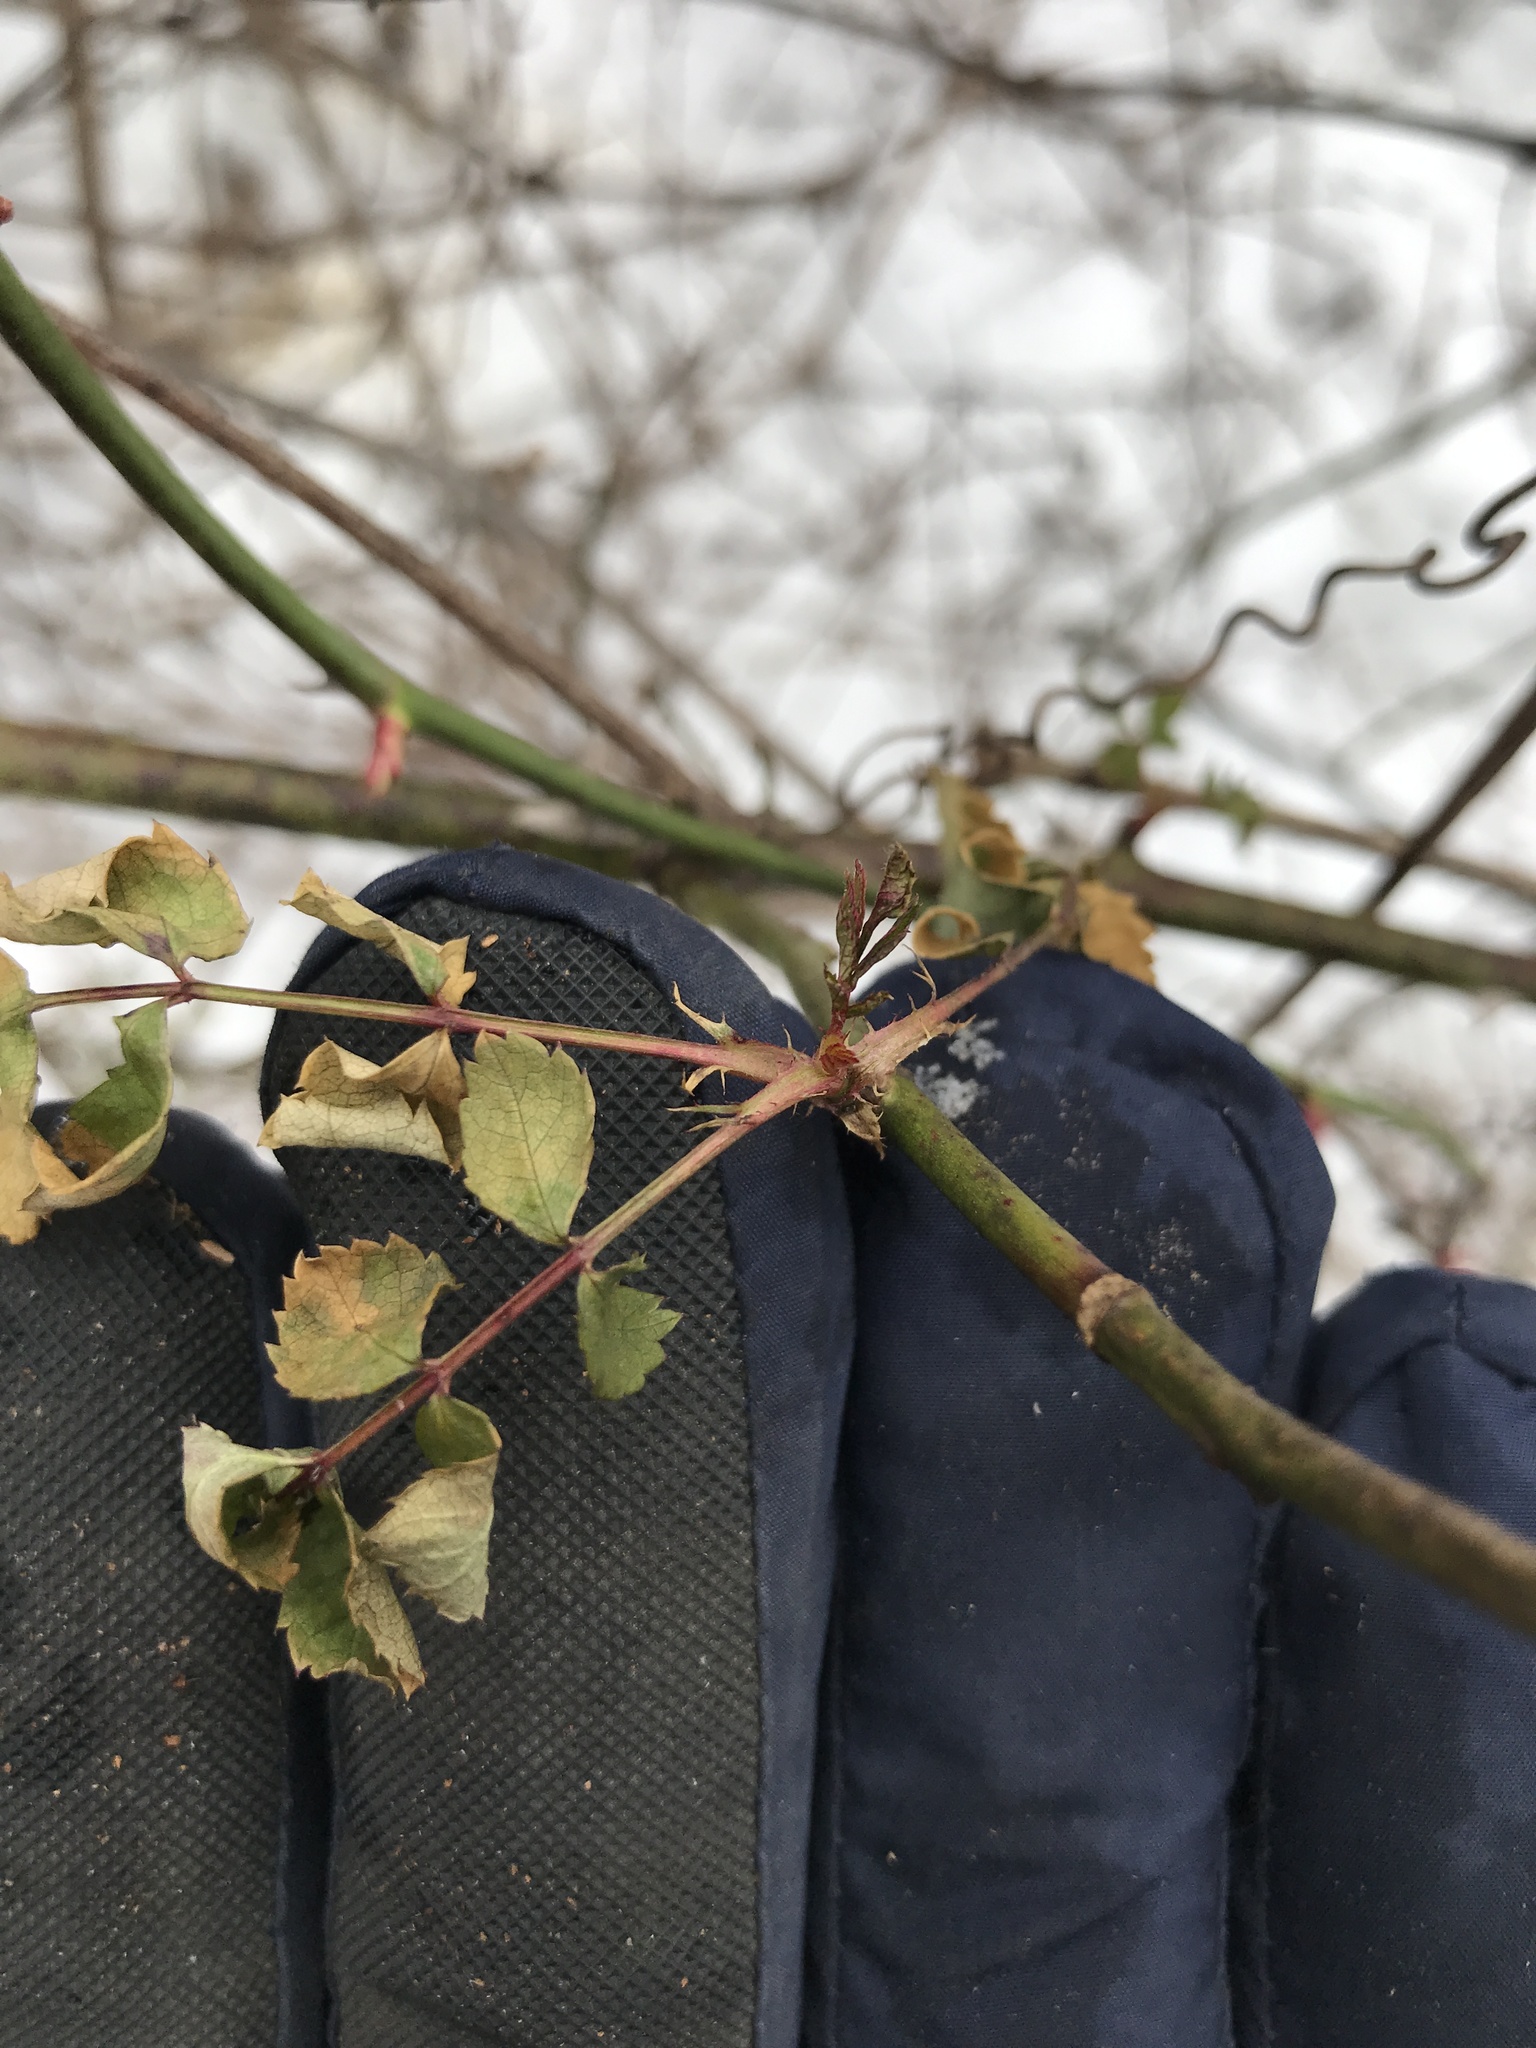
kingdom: Plantae
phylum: Tracheophyta
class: Magnoliopsida
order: Rosales
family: Rosaceae
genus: Rosa
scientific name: Rosa multiflora
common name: Multiflora rose
